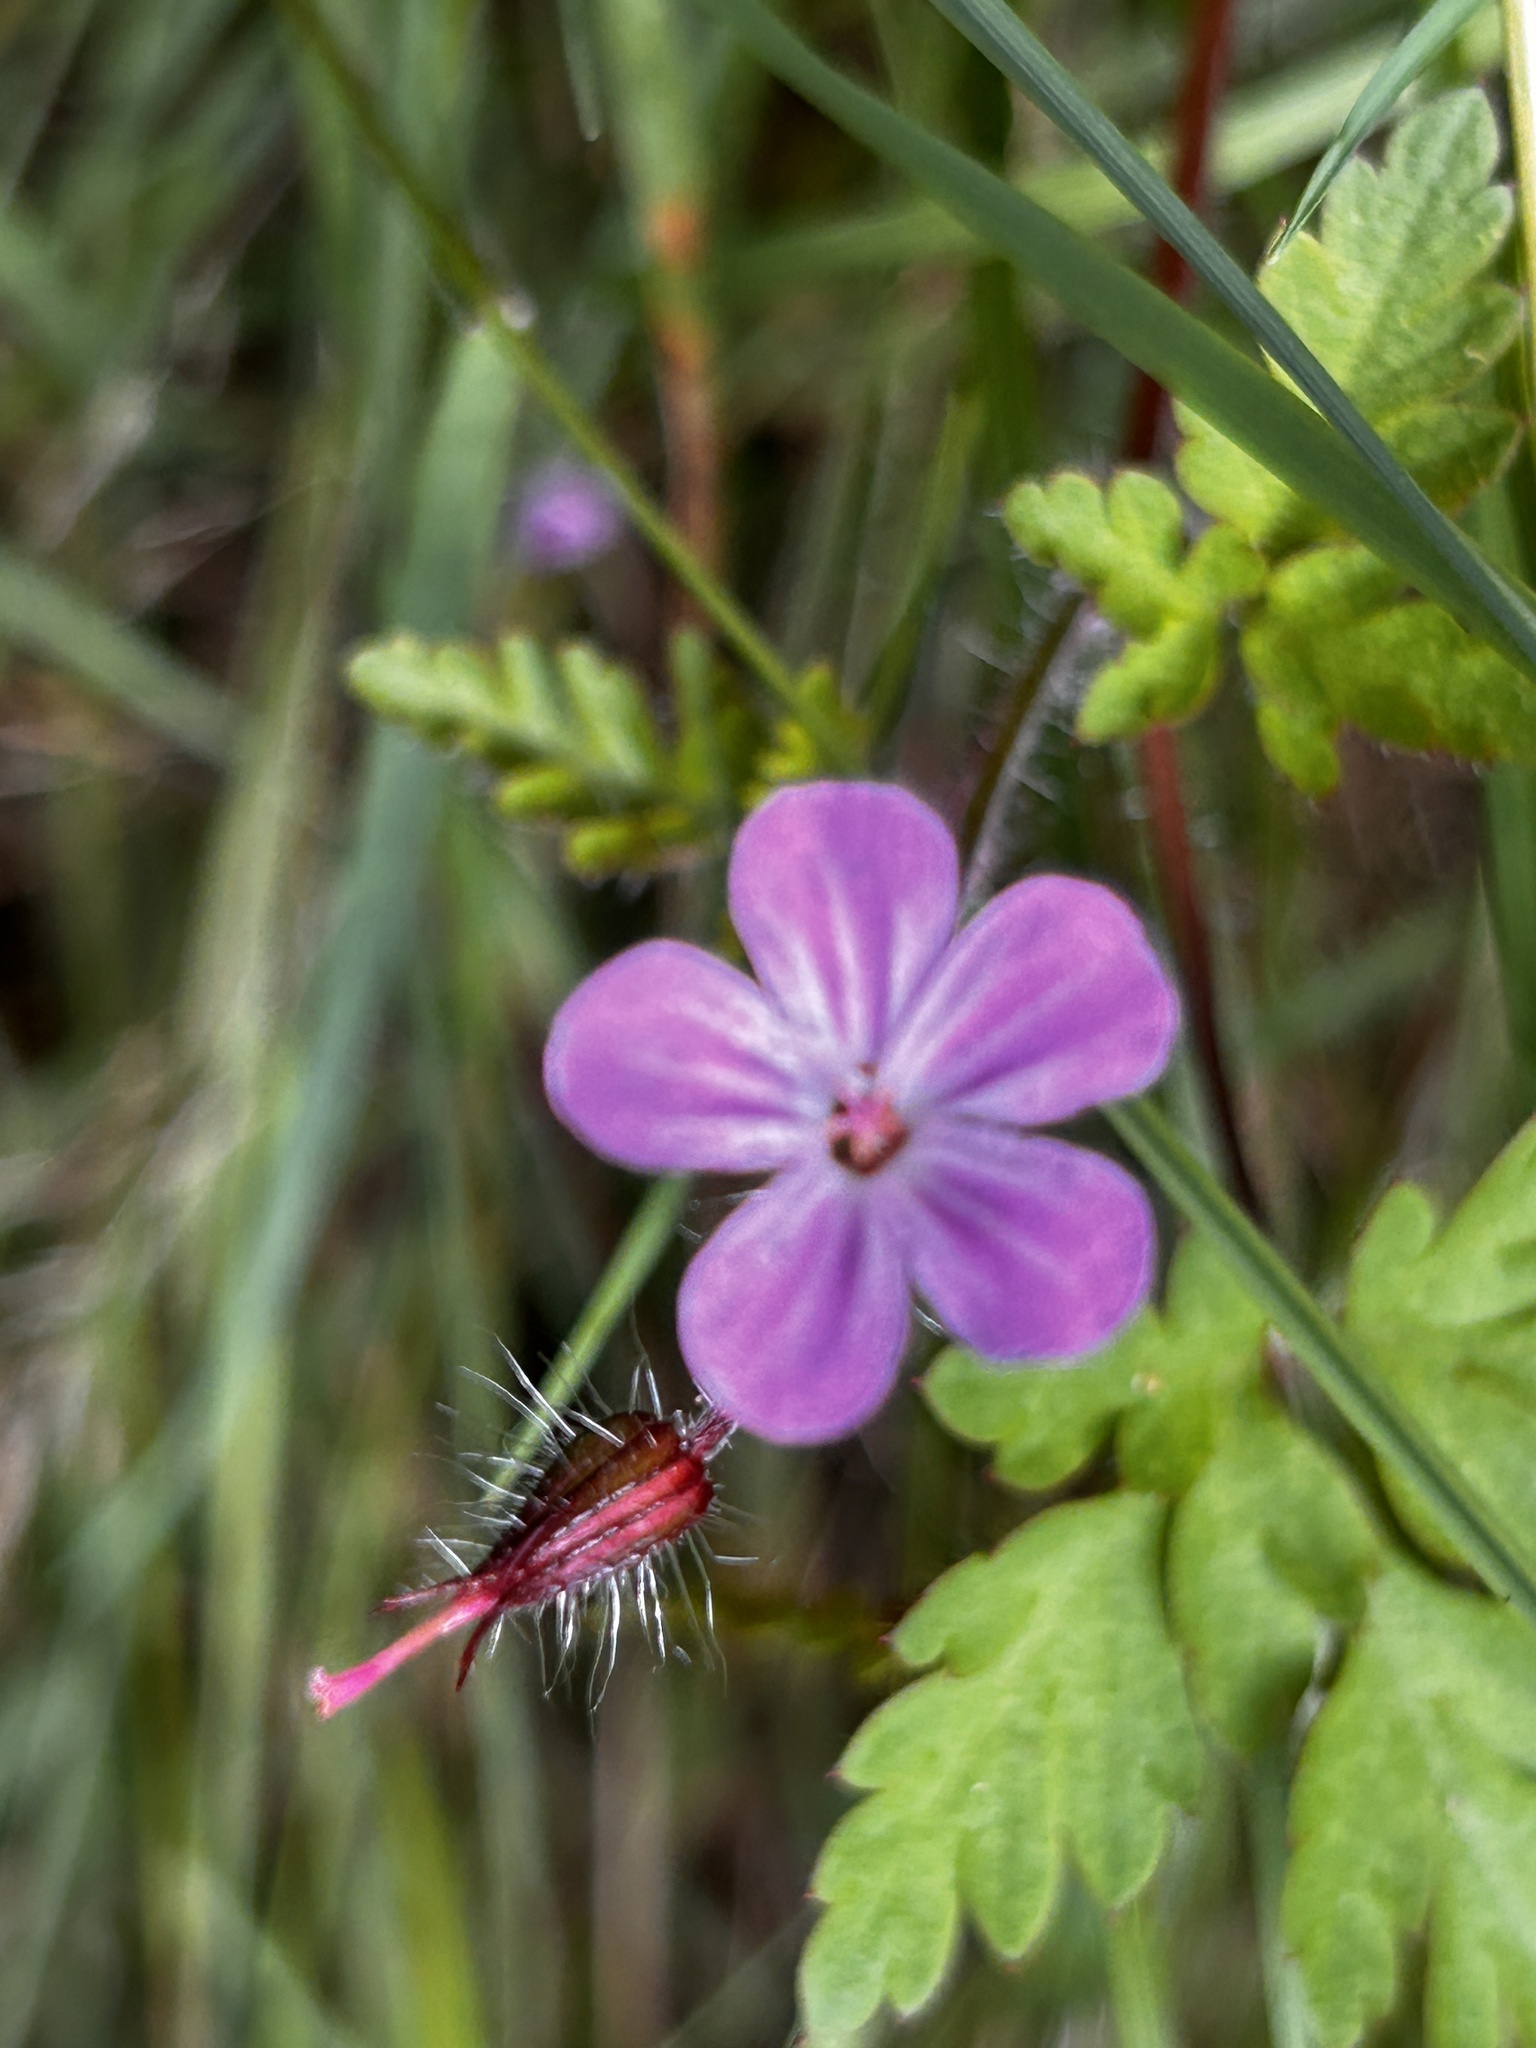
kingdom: Plantae
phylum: Tracheophyta
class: Magnoliopsida
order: Geraniales
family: Geraniaceae
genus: Geranium
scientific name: Geranium robertianum
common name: Herb-robert
